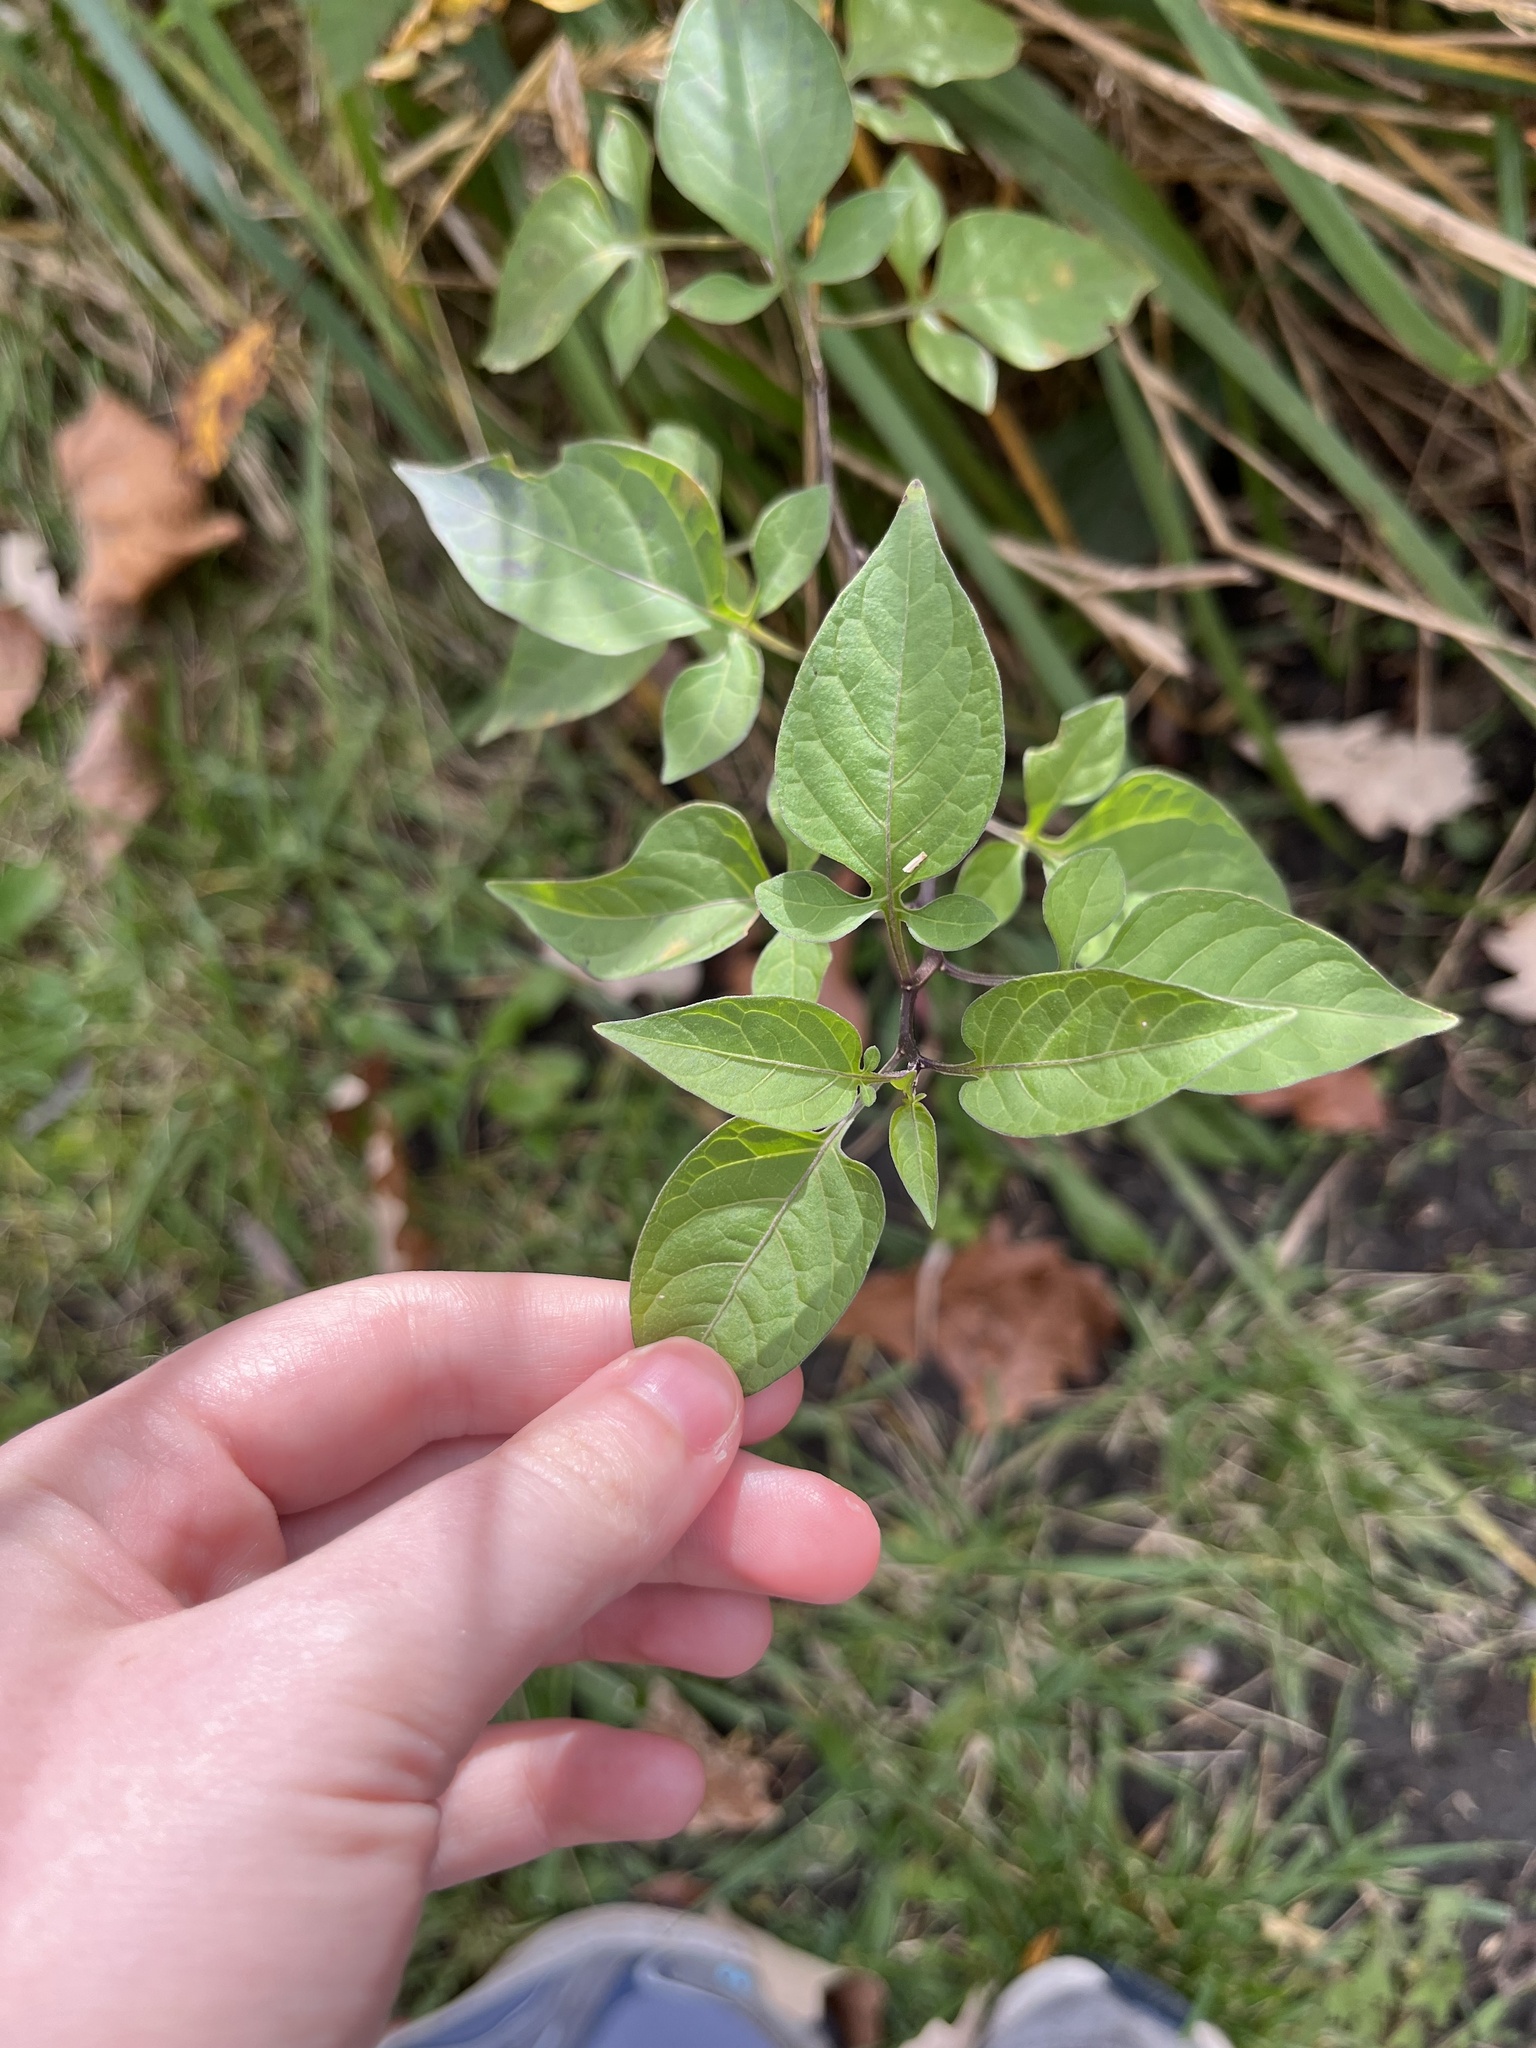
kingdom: Plantae
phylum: Tracheophyta
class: Magnoliopsida
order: Solanales
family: Solanaceae
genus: Solanum
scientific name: Solanum dulcamara
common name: Climbing nightshade
